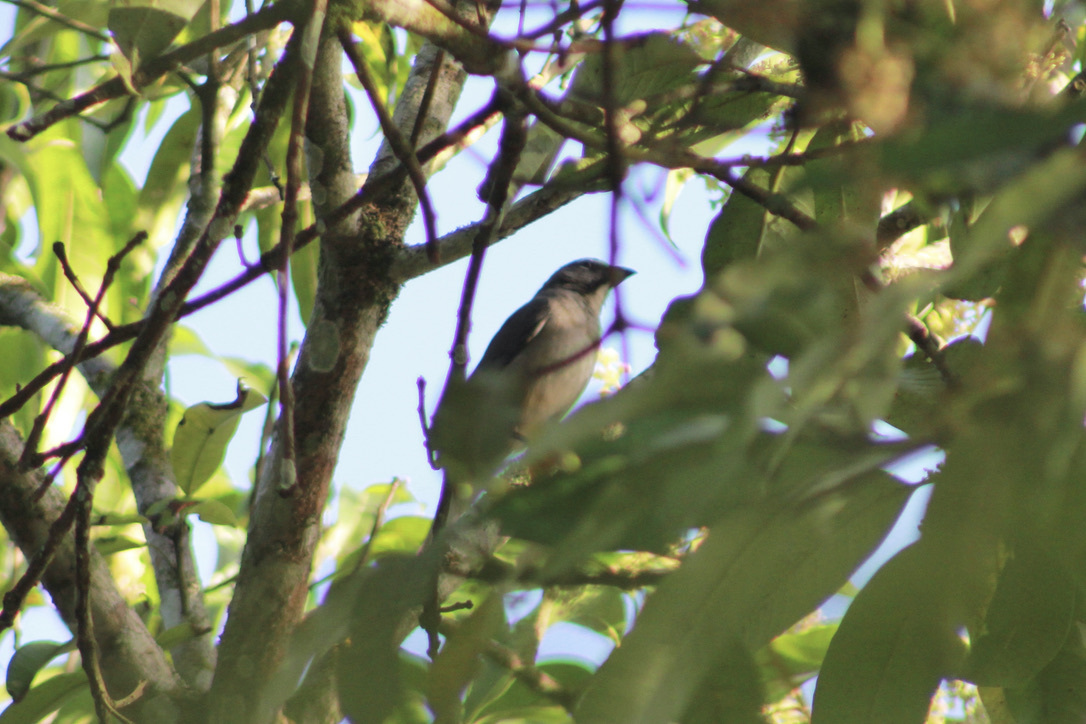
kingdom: Animalia
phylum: Chordata
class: Aves
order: Passeriformes
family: Thraupidae
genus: Saltator
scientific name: Saltator olivascens
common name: Caribbean grey saltator
